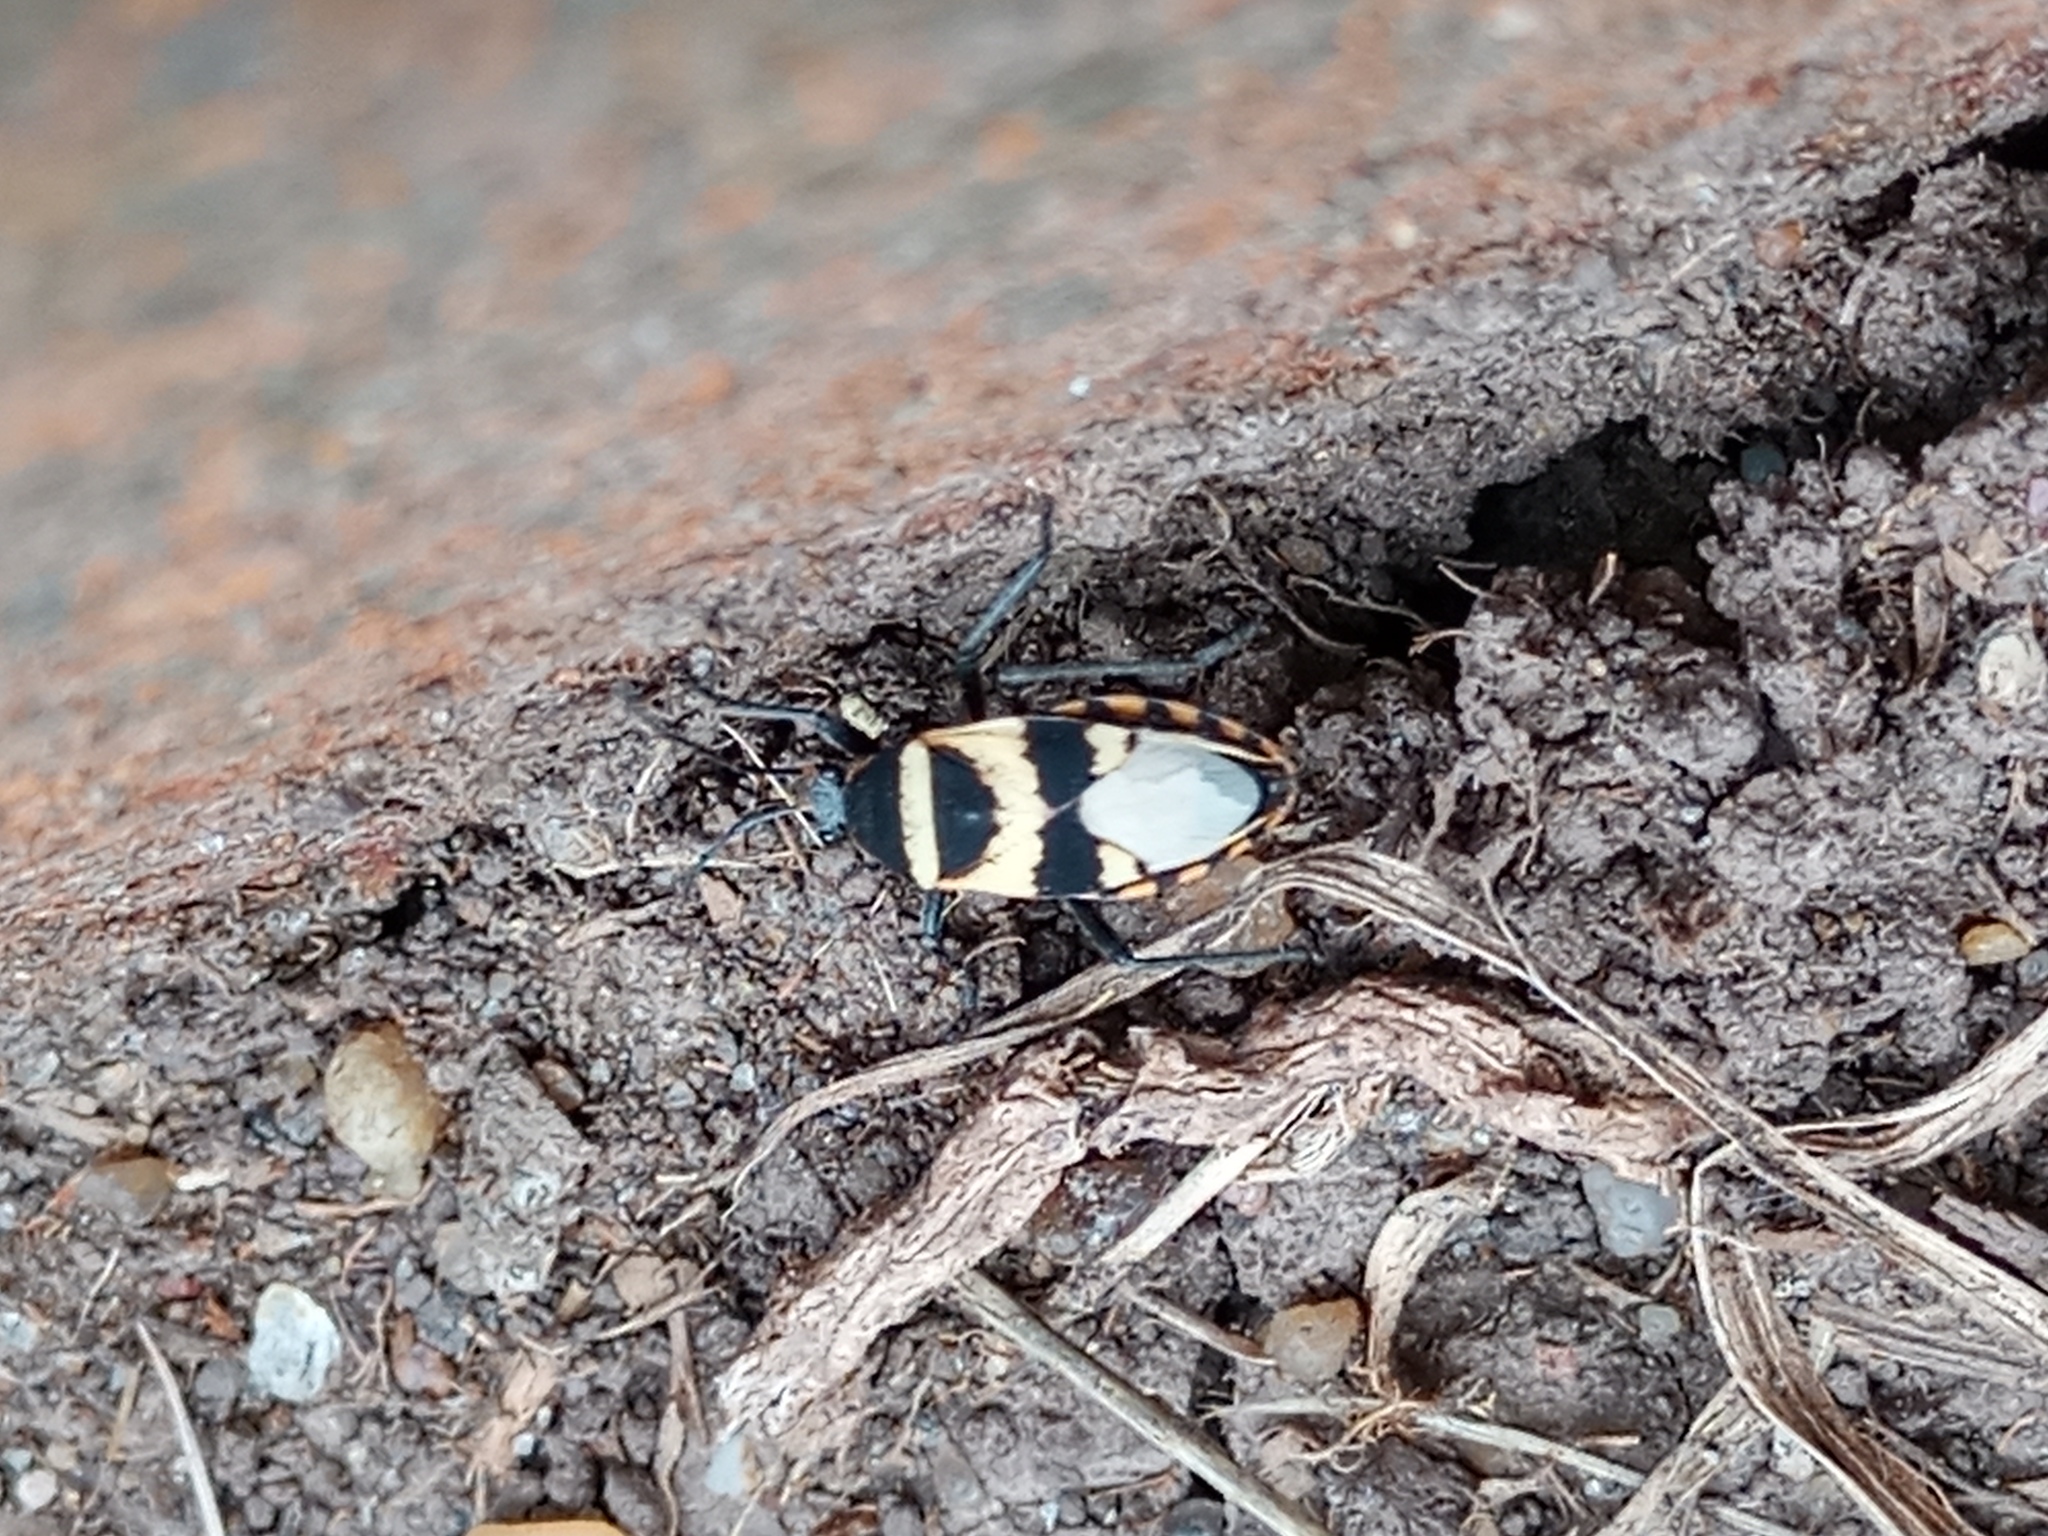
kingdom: Animalia
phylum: Arthropoda
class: Insecta
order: Hemiptera
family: Largidae
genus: Largus
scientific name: Largus fasciatus
